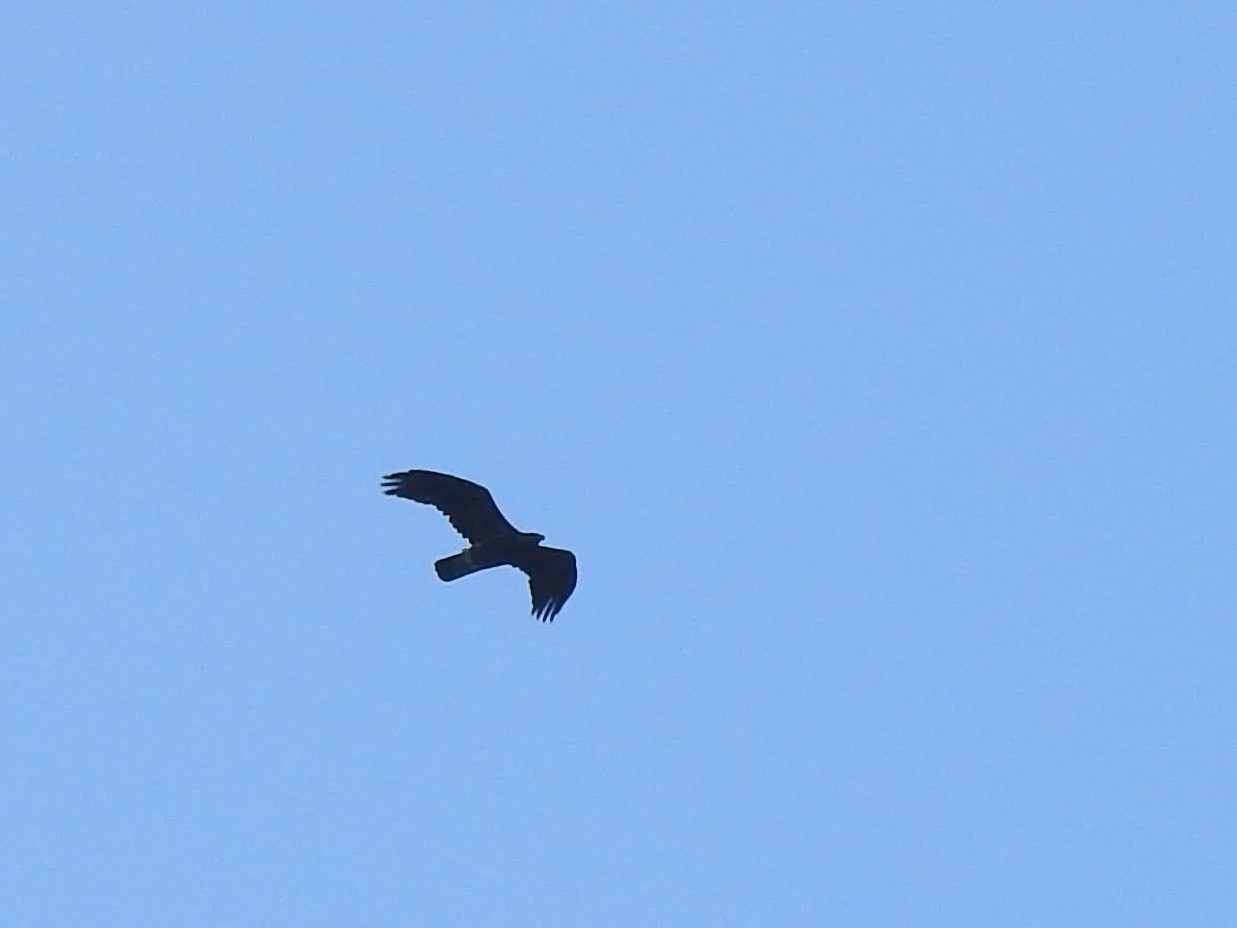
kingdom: Animalia
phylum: Chordata
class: Aves
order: Accipitriformes
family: Accipitridae
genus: Aquila
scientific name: Aquila chrysaetos
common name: Golden eagle
